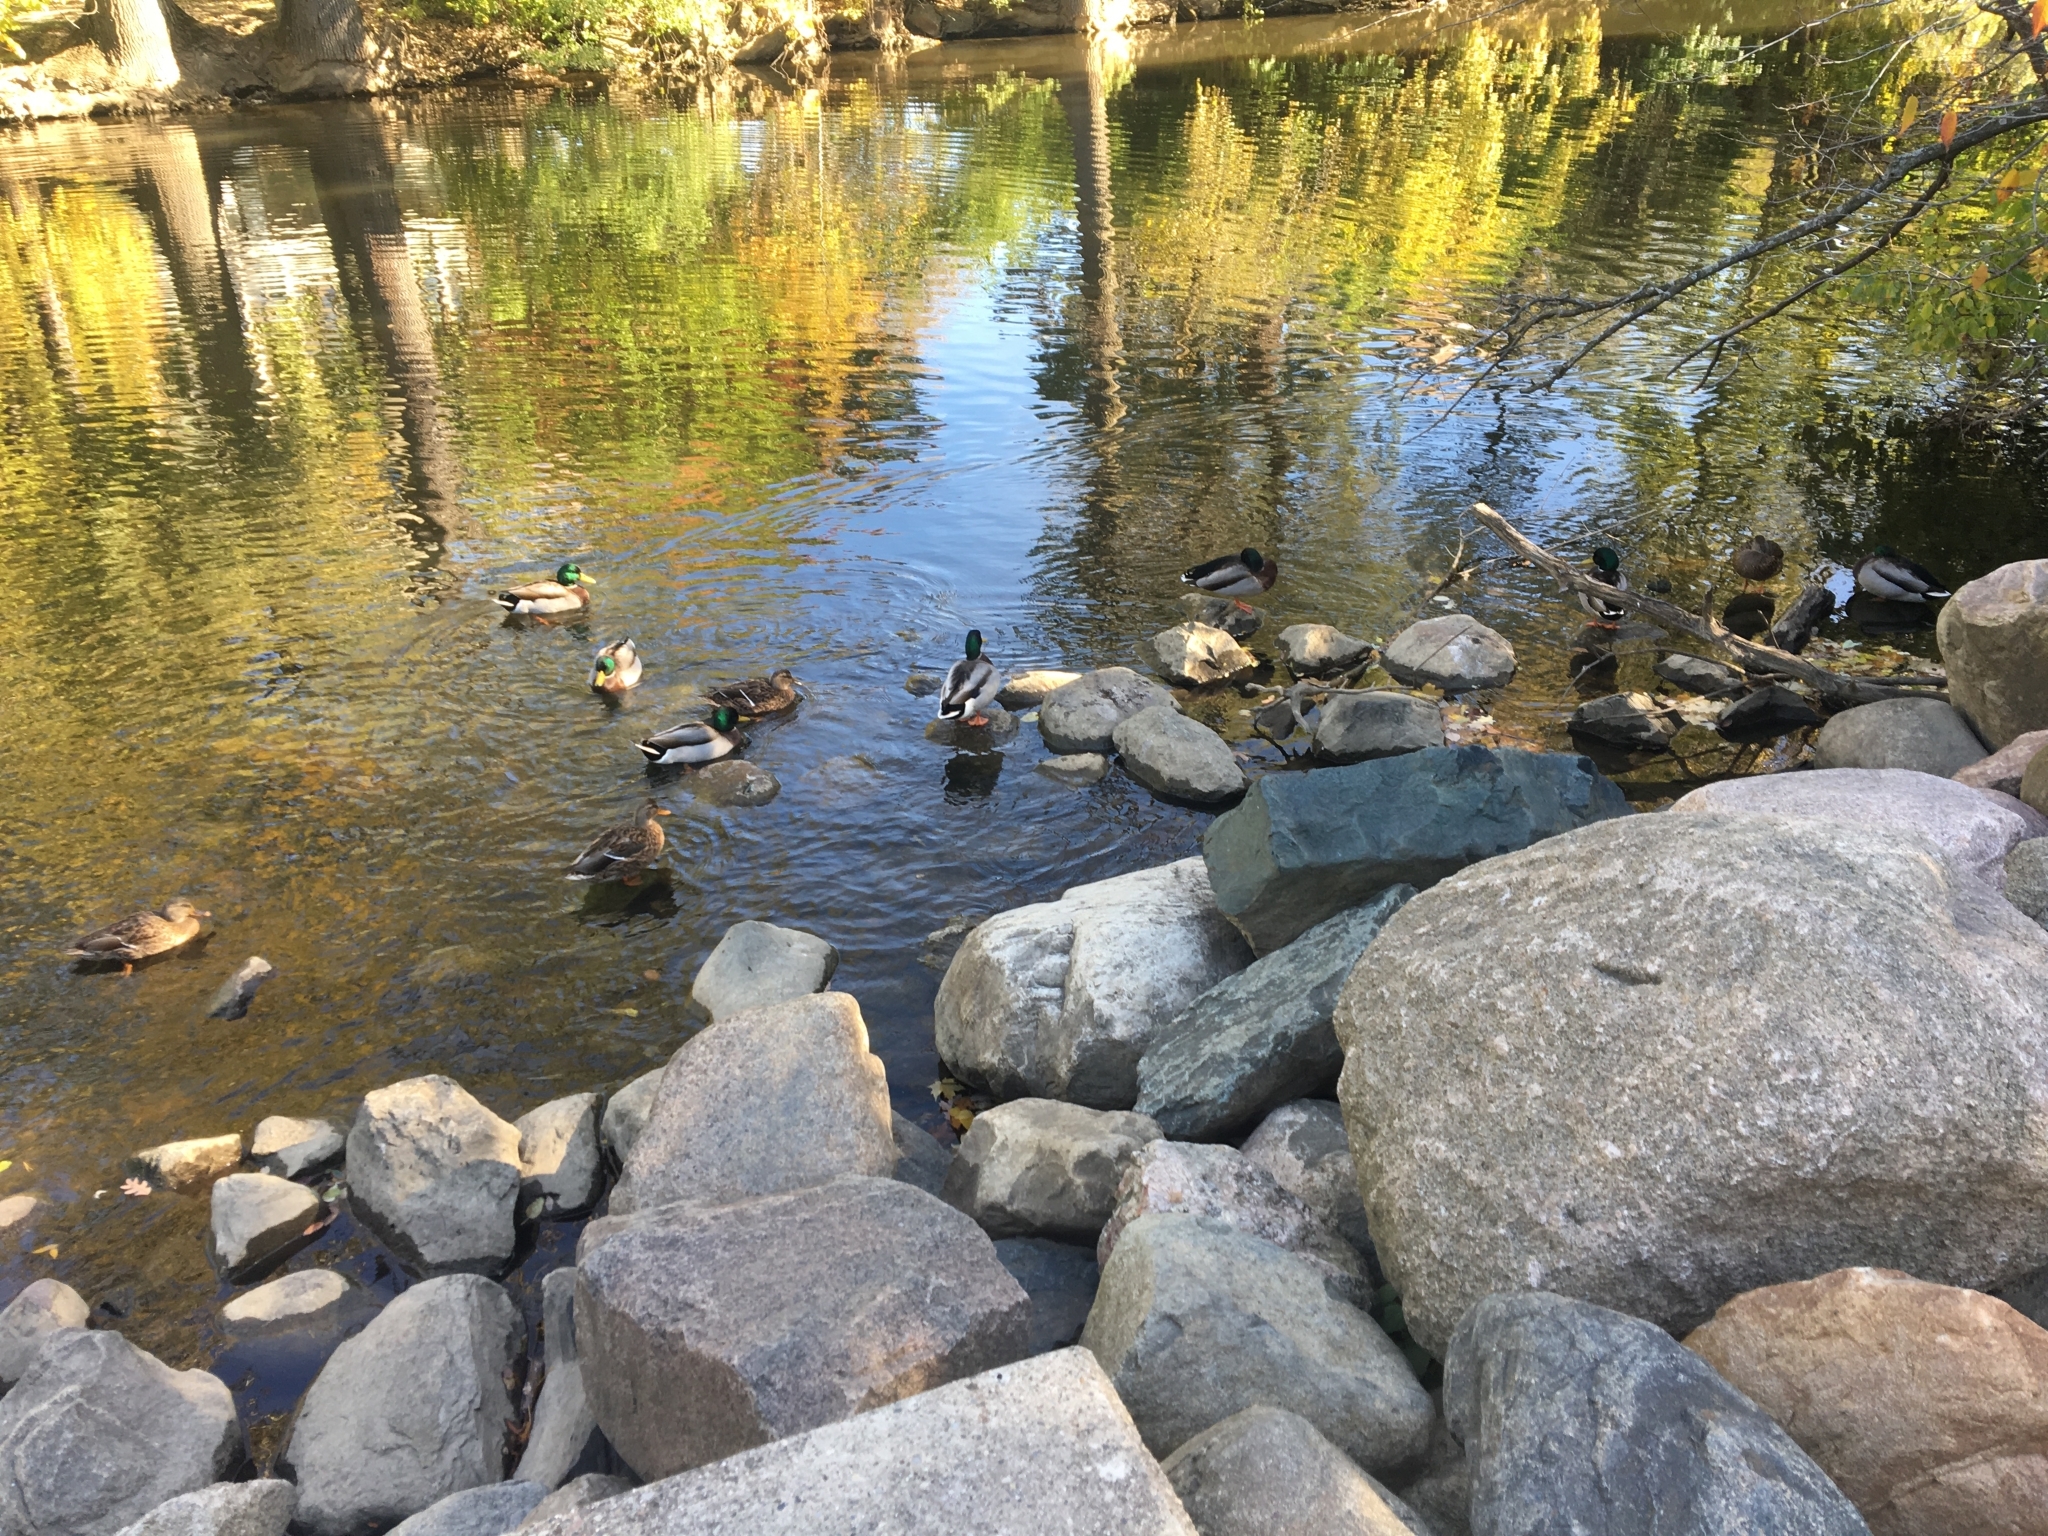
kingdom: Animalia
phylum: Chordata
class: Aves
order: Anseriformes
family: Anatidae
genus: Anas
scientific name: Anas platyrhynchos
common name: Mallard
